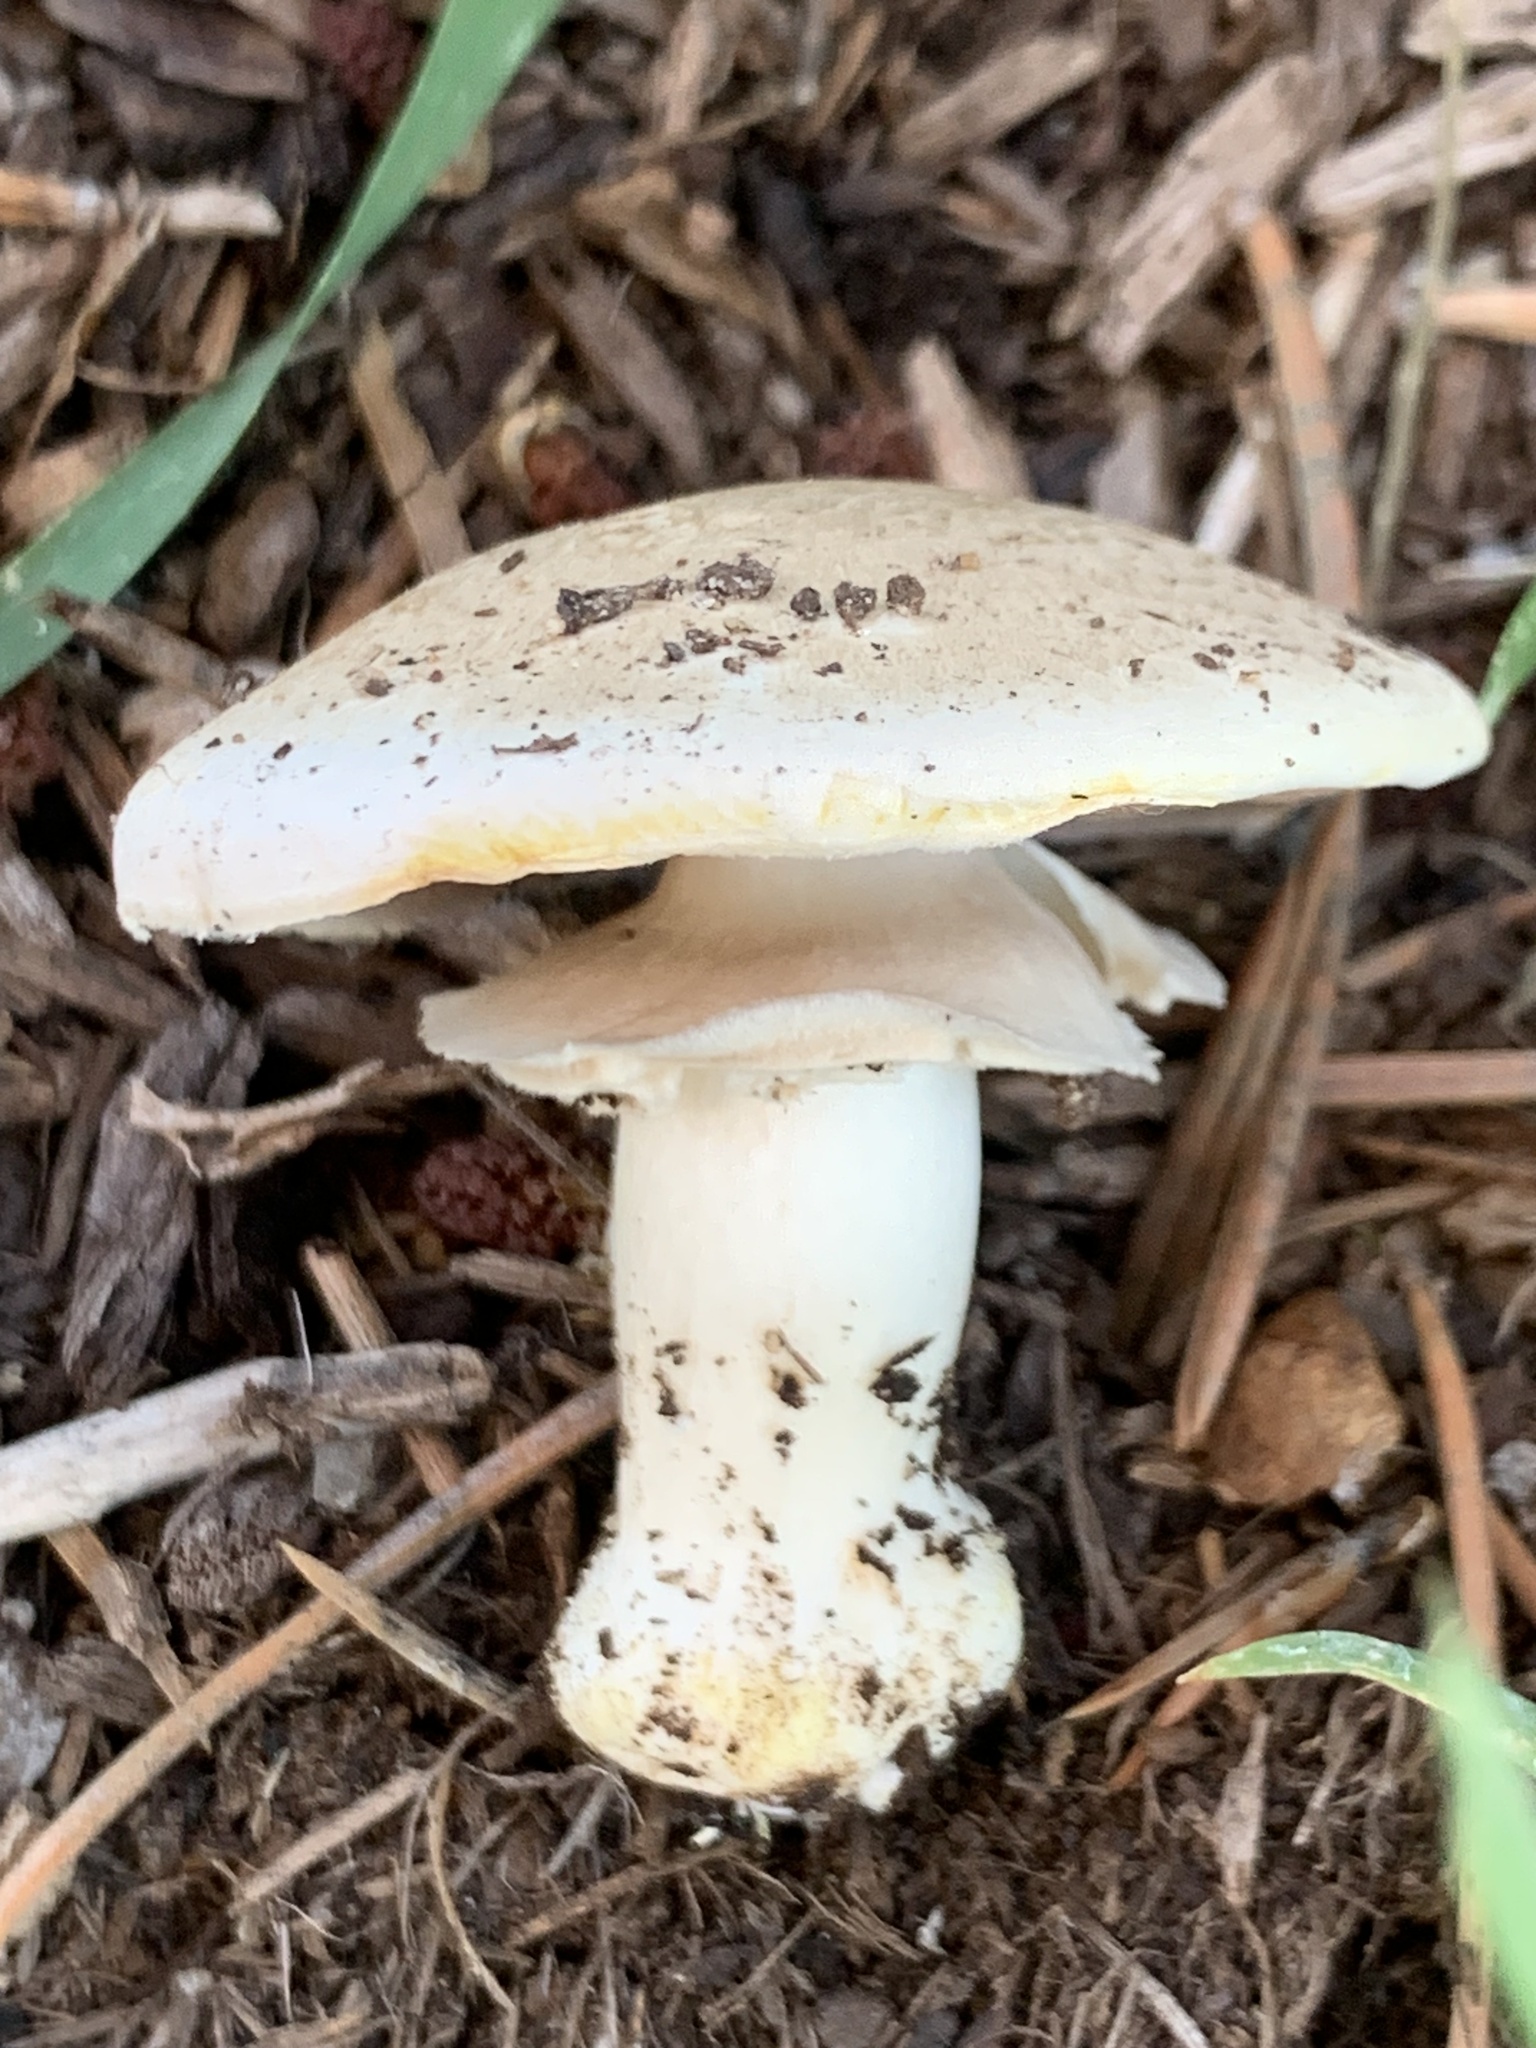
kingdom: Fungi
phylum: Basidiomycota
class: Agaricomycetes
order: Agaricales
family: Agaricaceae
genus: Agaricus
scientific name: Agaricus xanthodermus
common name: Yellow stainer
